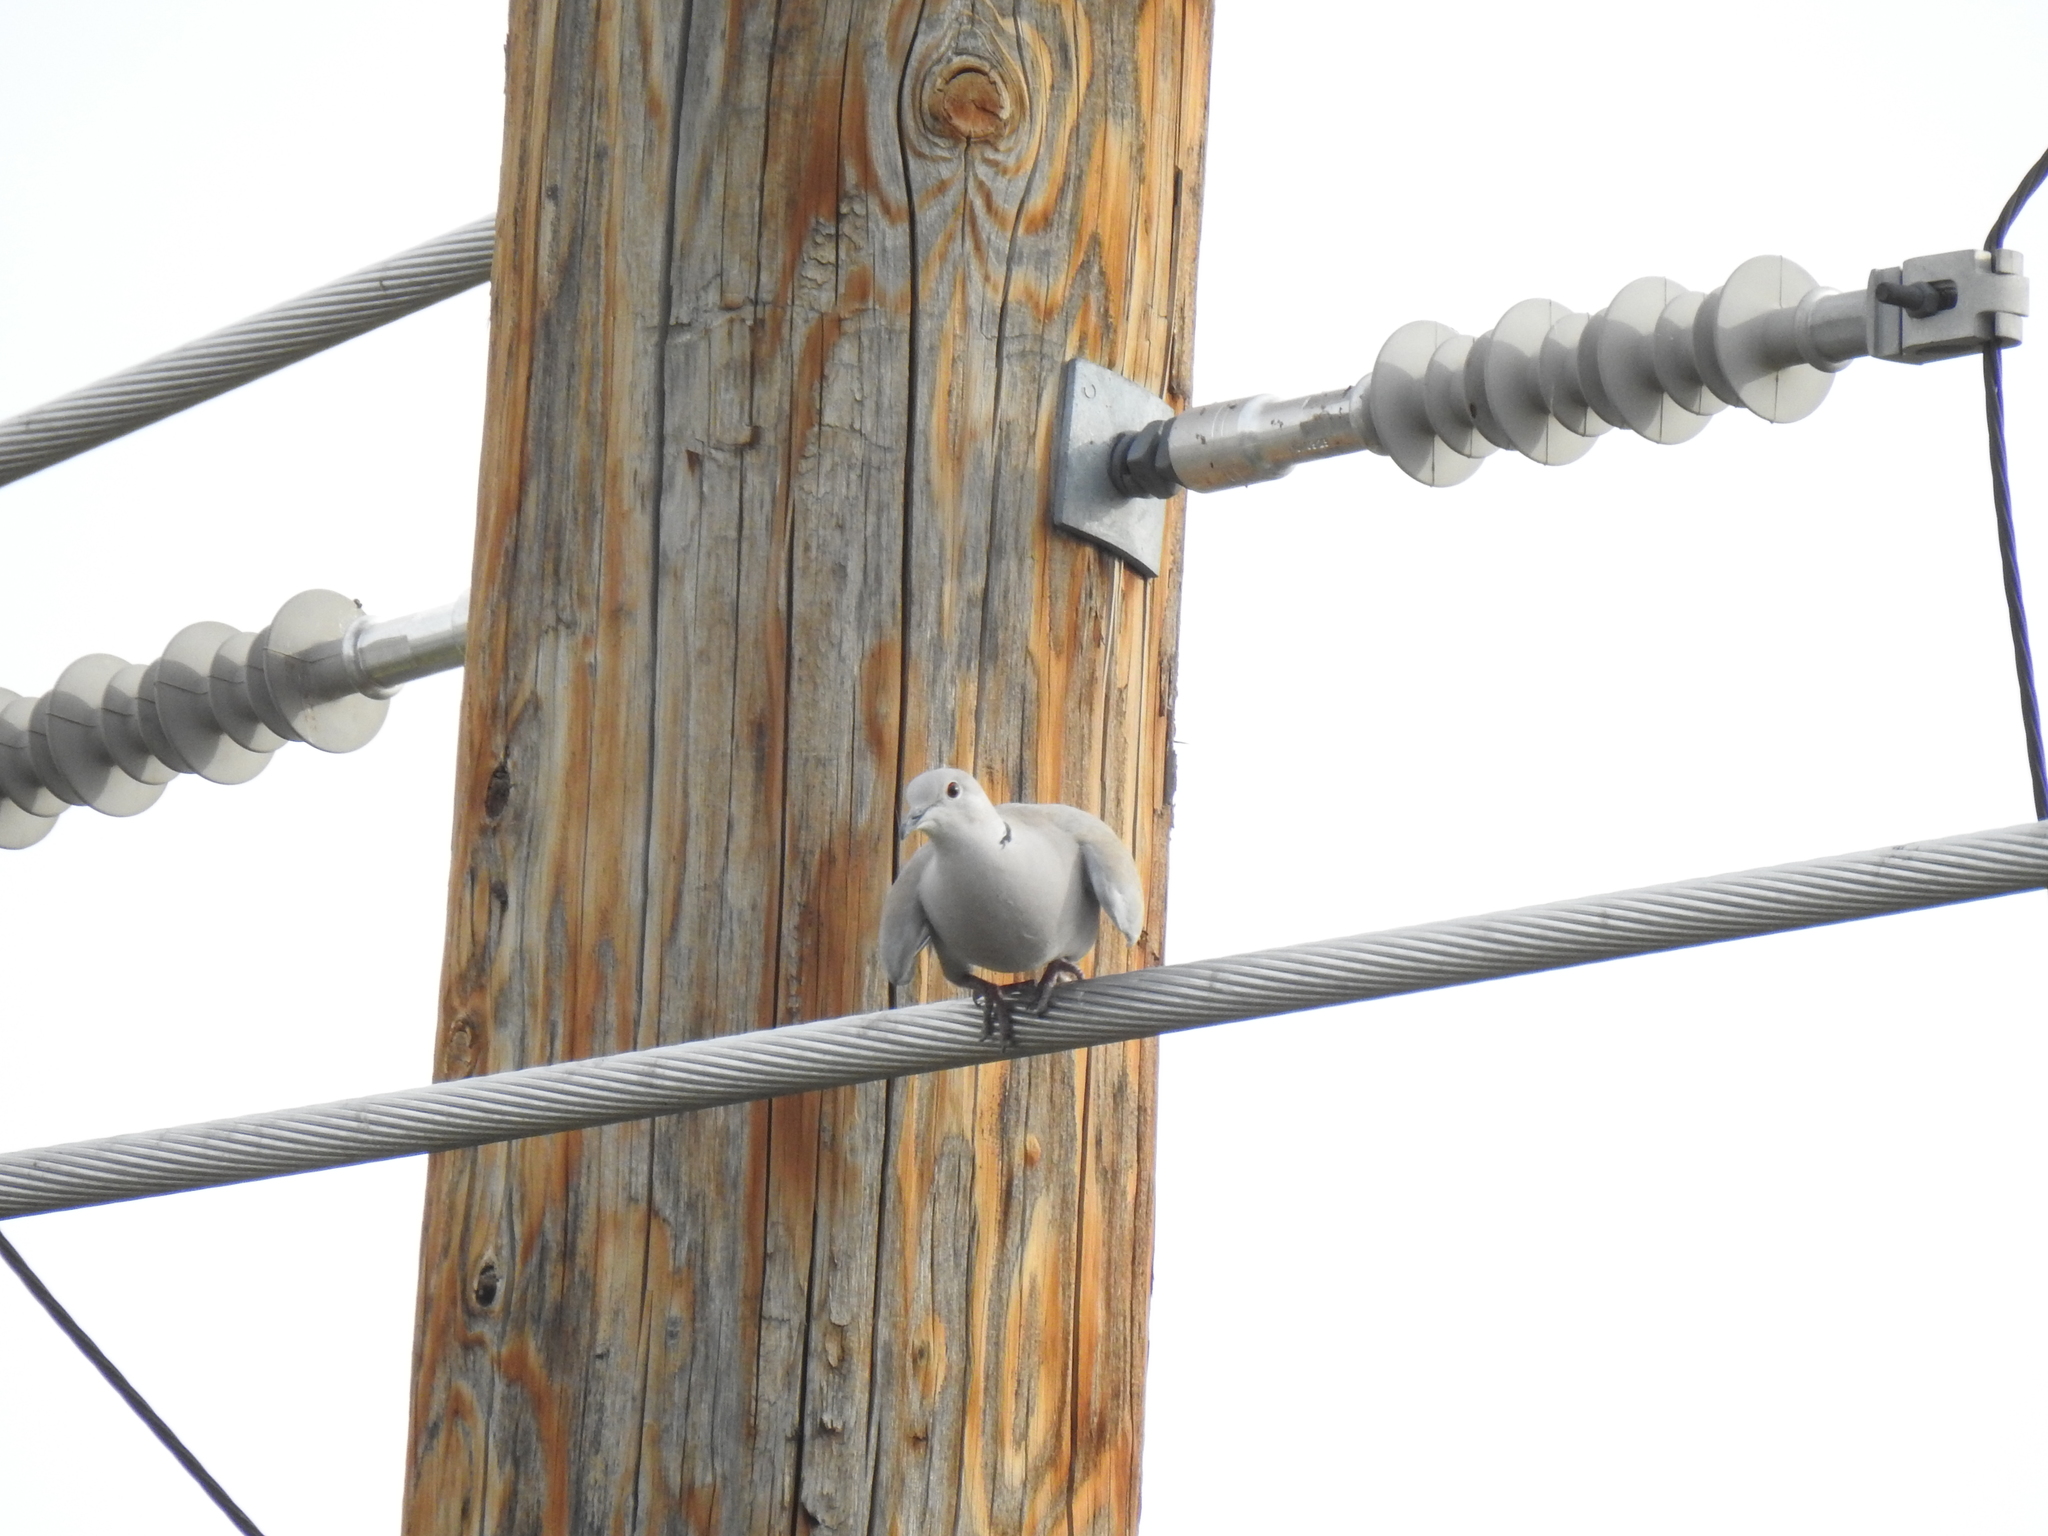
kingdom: Animalia
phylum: Chordata
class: Aves
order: Columbiformes
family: Columbidae
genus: Streptopelia
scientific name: Streptopelia decaocto
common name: Eurasian collared dove
